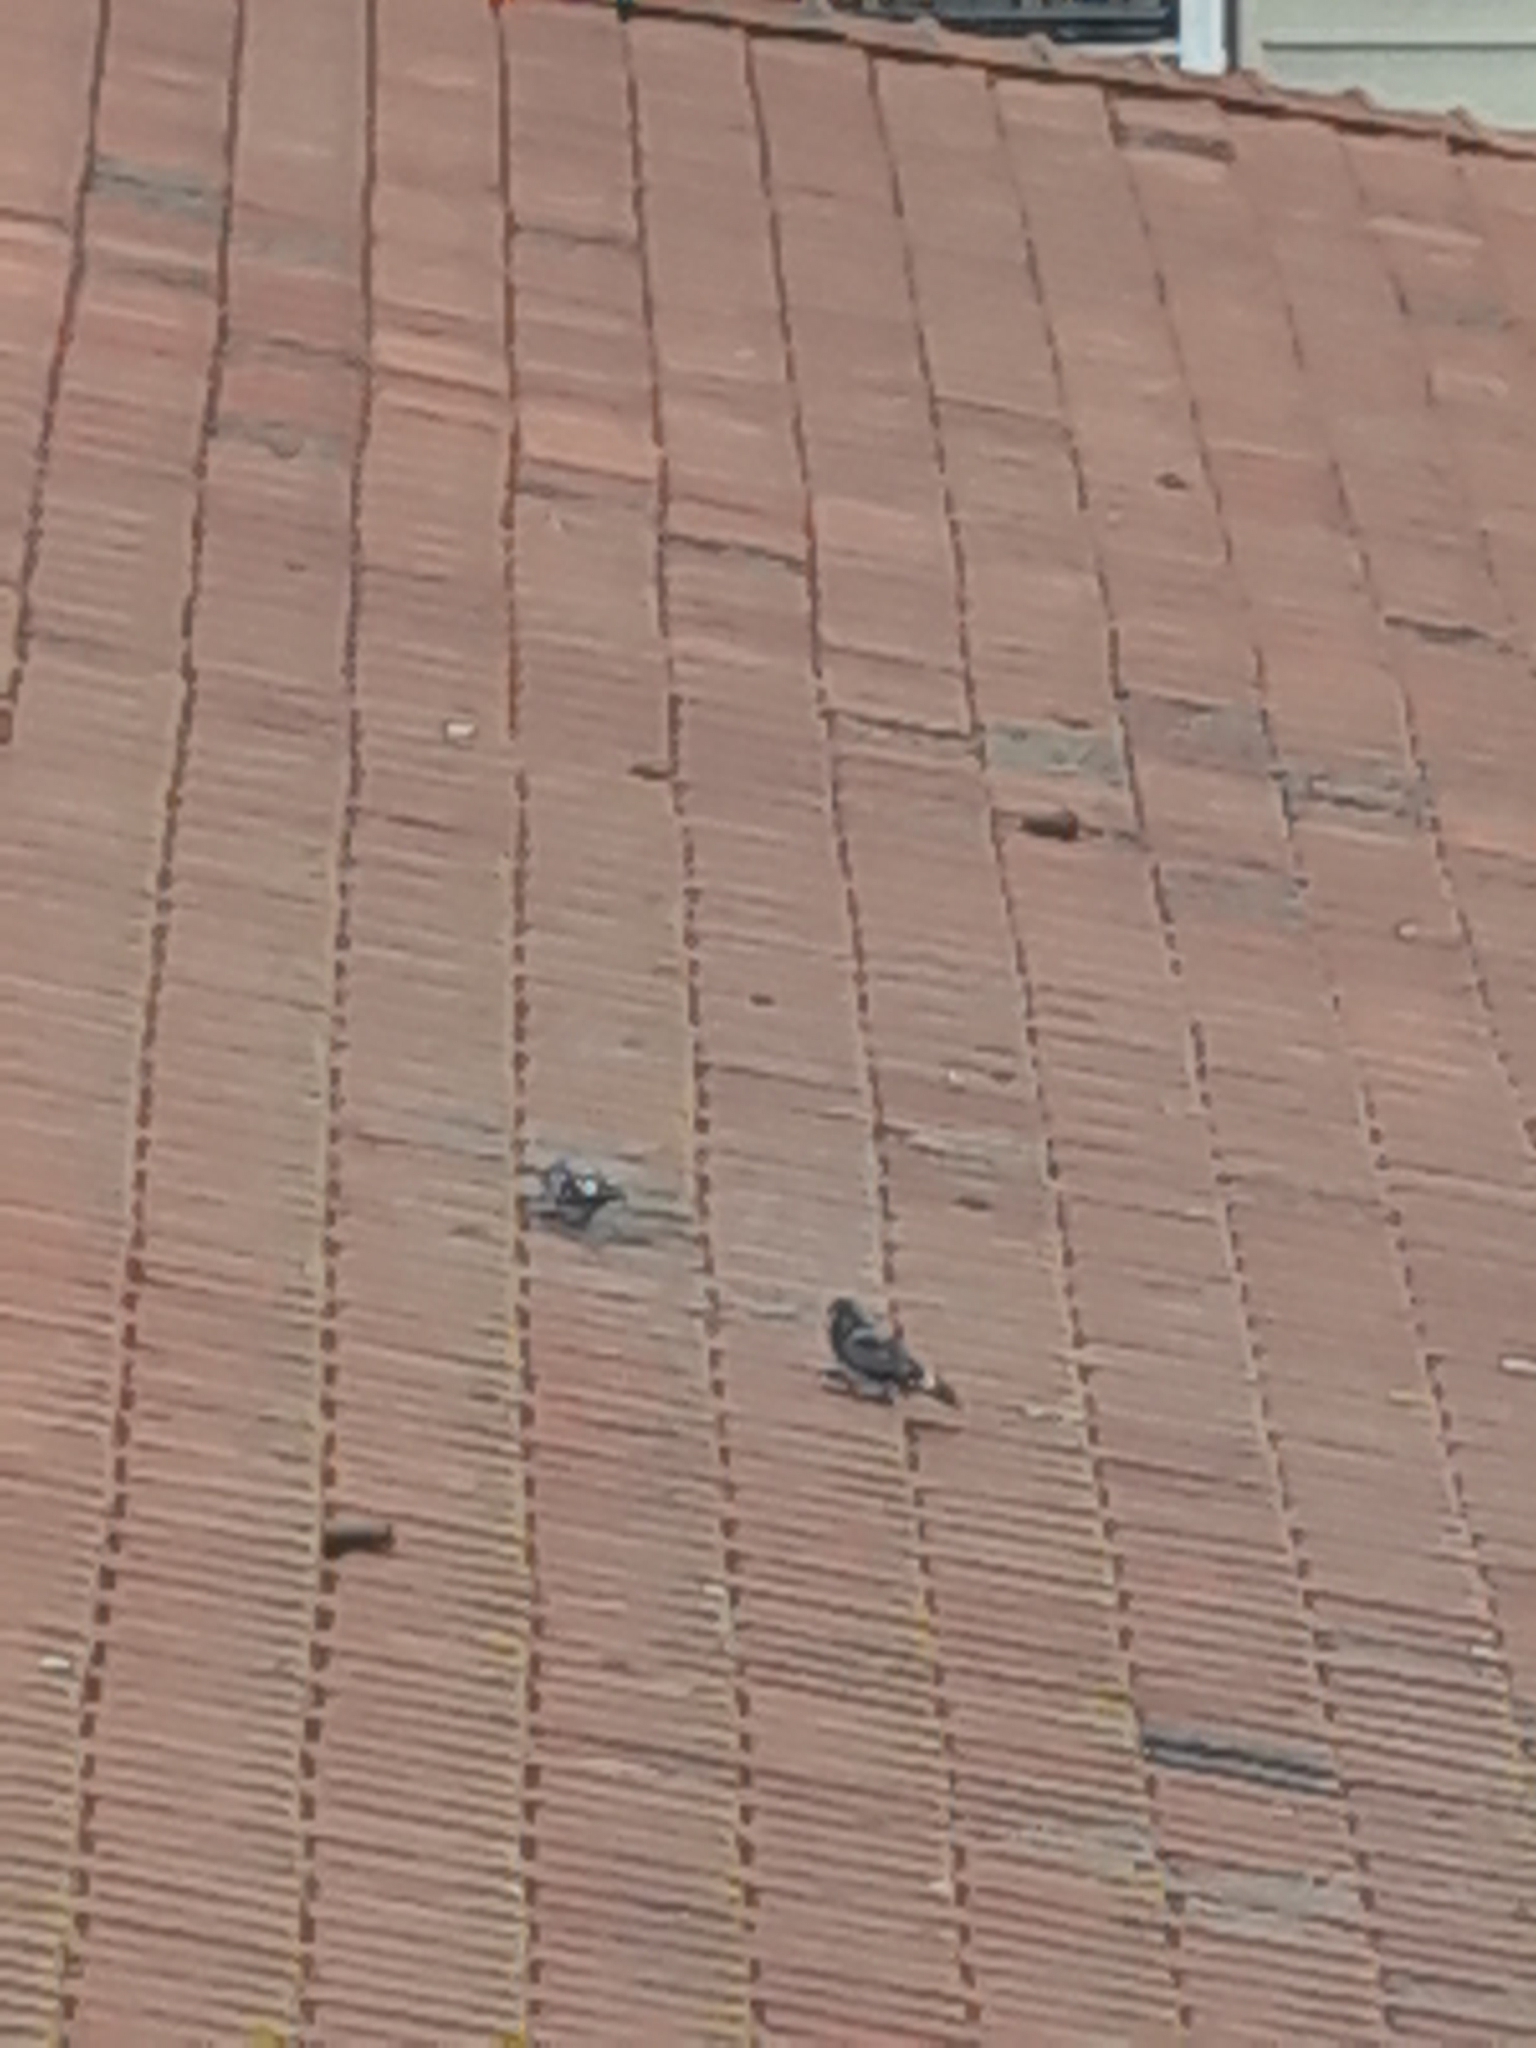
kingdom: Animalia
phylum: Chordata
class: Aves
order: Columbiformes
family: Columbidae
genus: Columba
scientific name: Columba livia
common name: Rock pigeon
